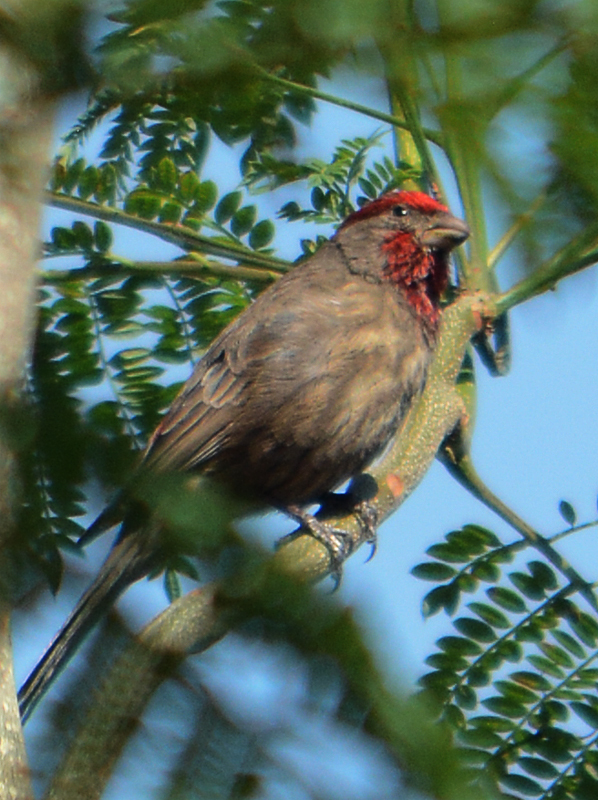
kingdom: Animalia
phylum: Chordata
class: Aves
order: Passeriformes
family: Fringillidae
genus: Haemorhous
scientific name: Haemorhous mexicanus
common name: House finch
